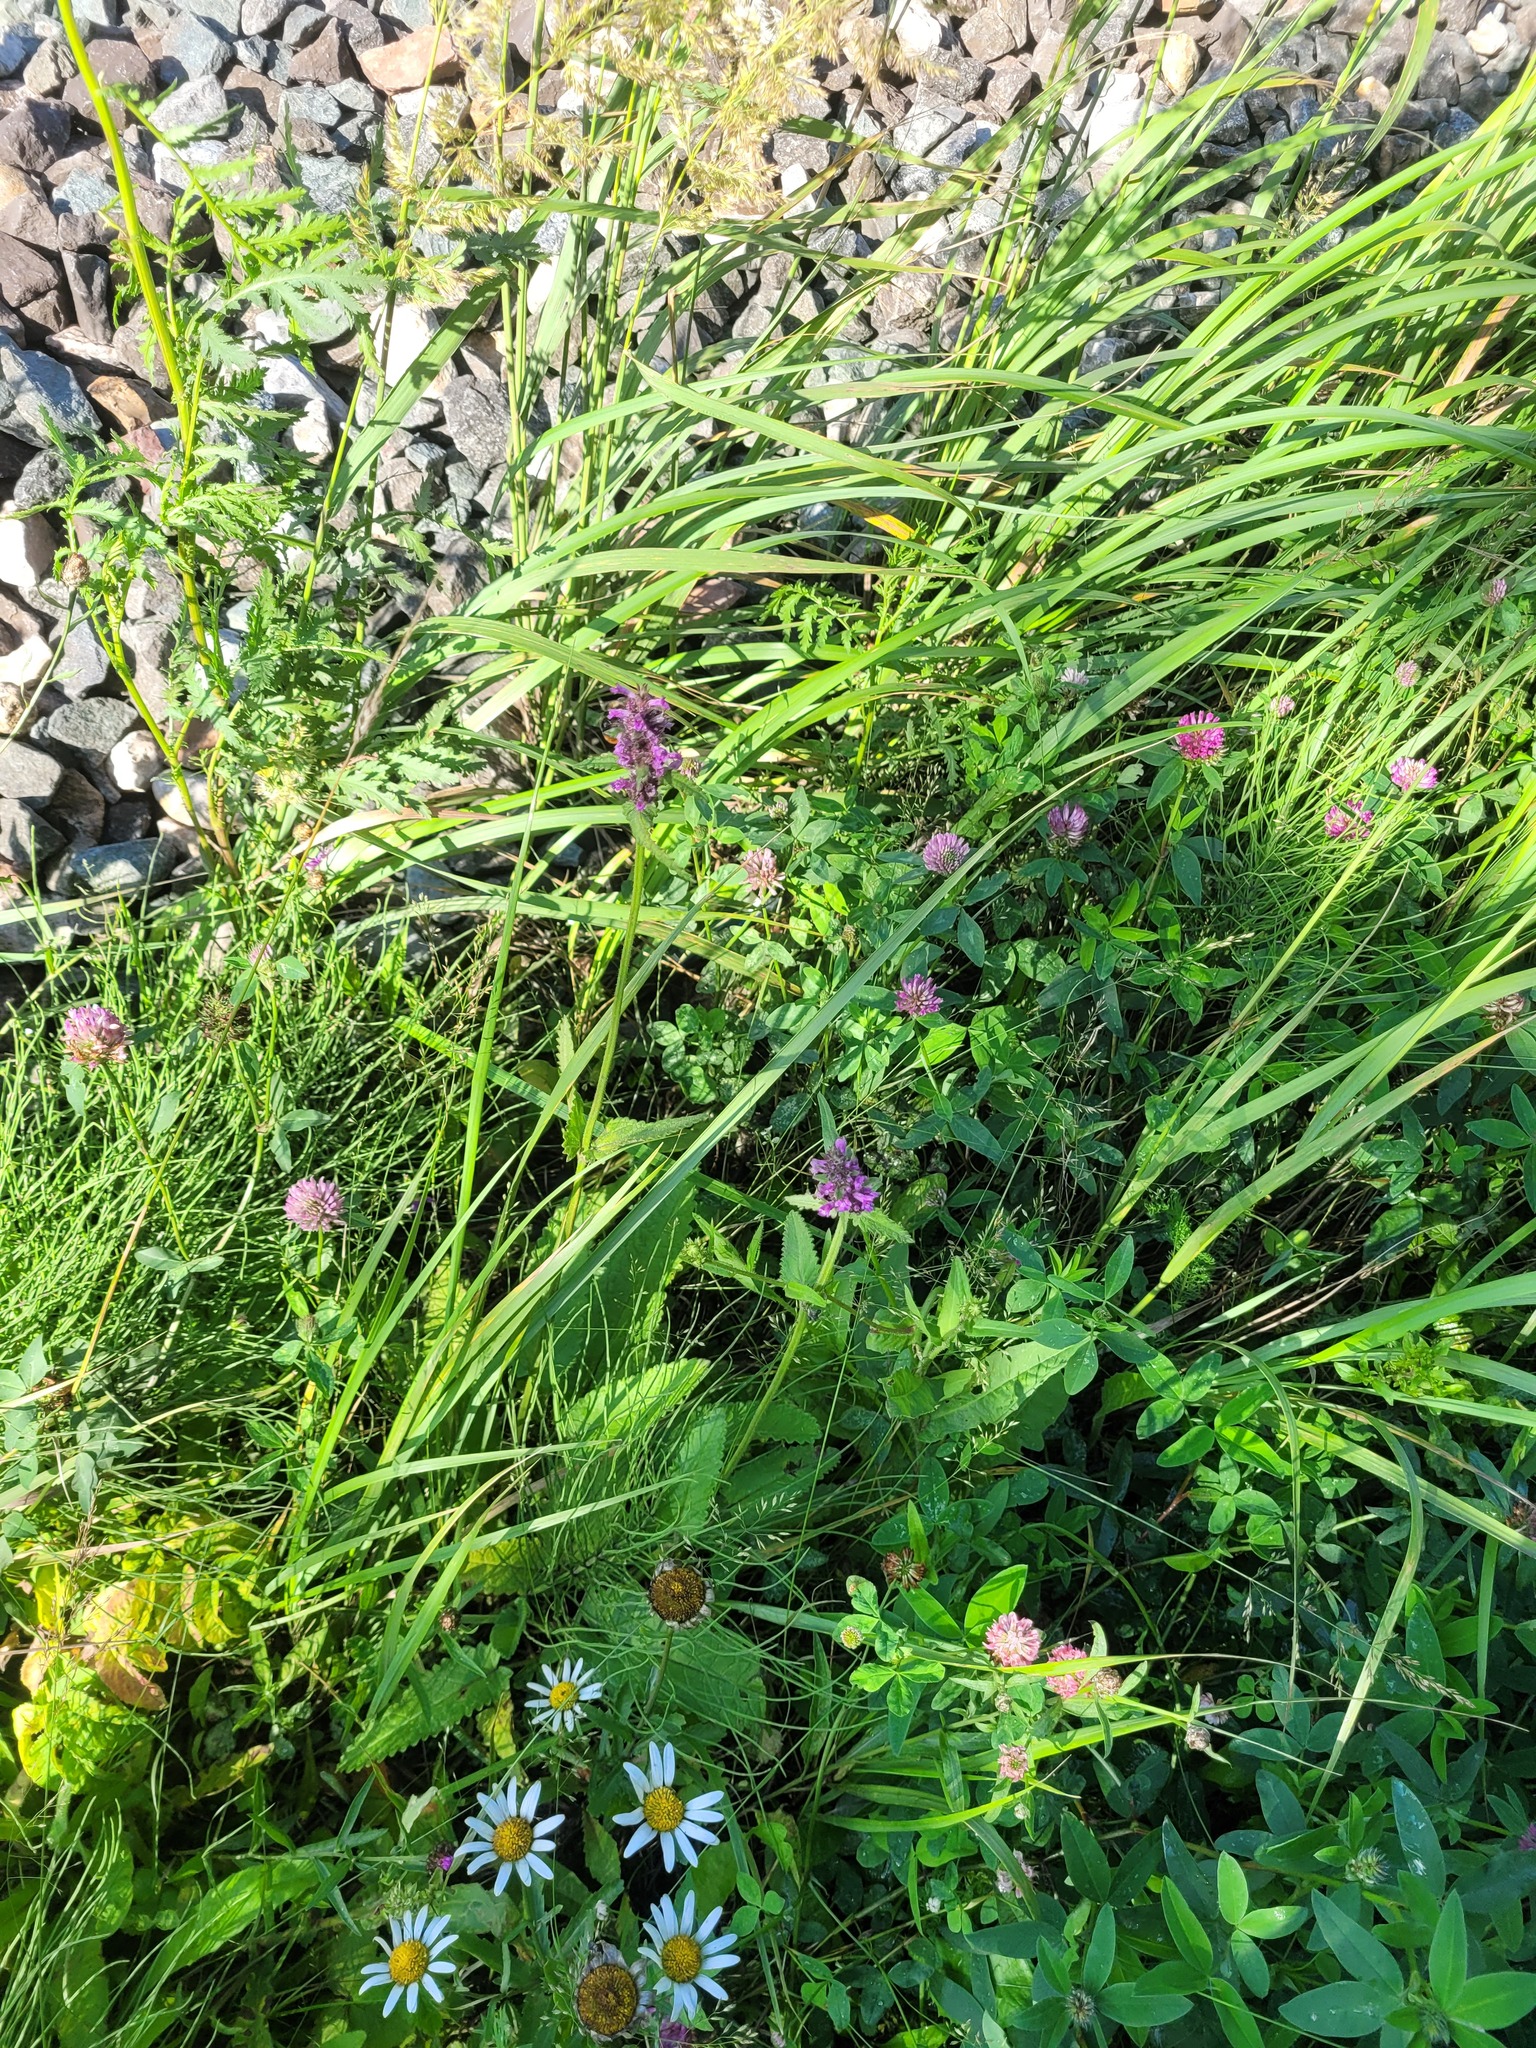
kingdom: Plantae
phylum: Tracheophyta
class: Magnoliopsida
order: Lamiales
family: Lamiaceae
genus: Betonica
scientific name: Betonica officinalis
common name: Bishop's-wort
